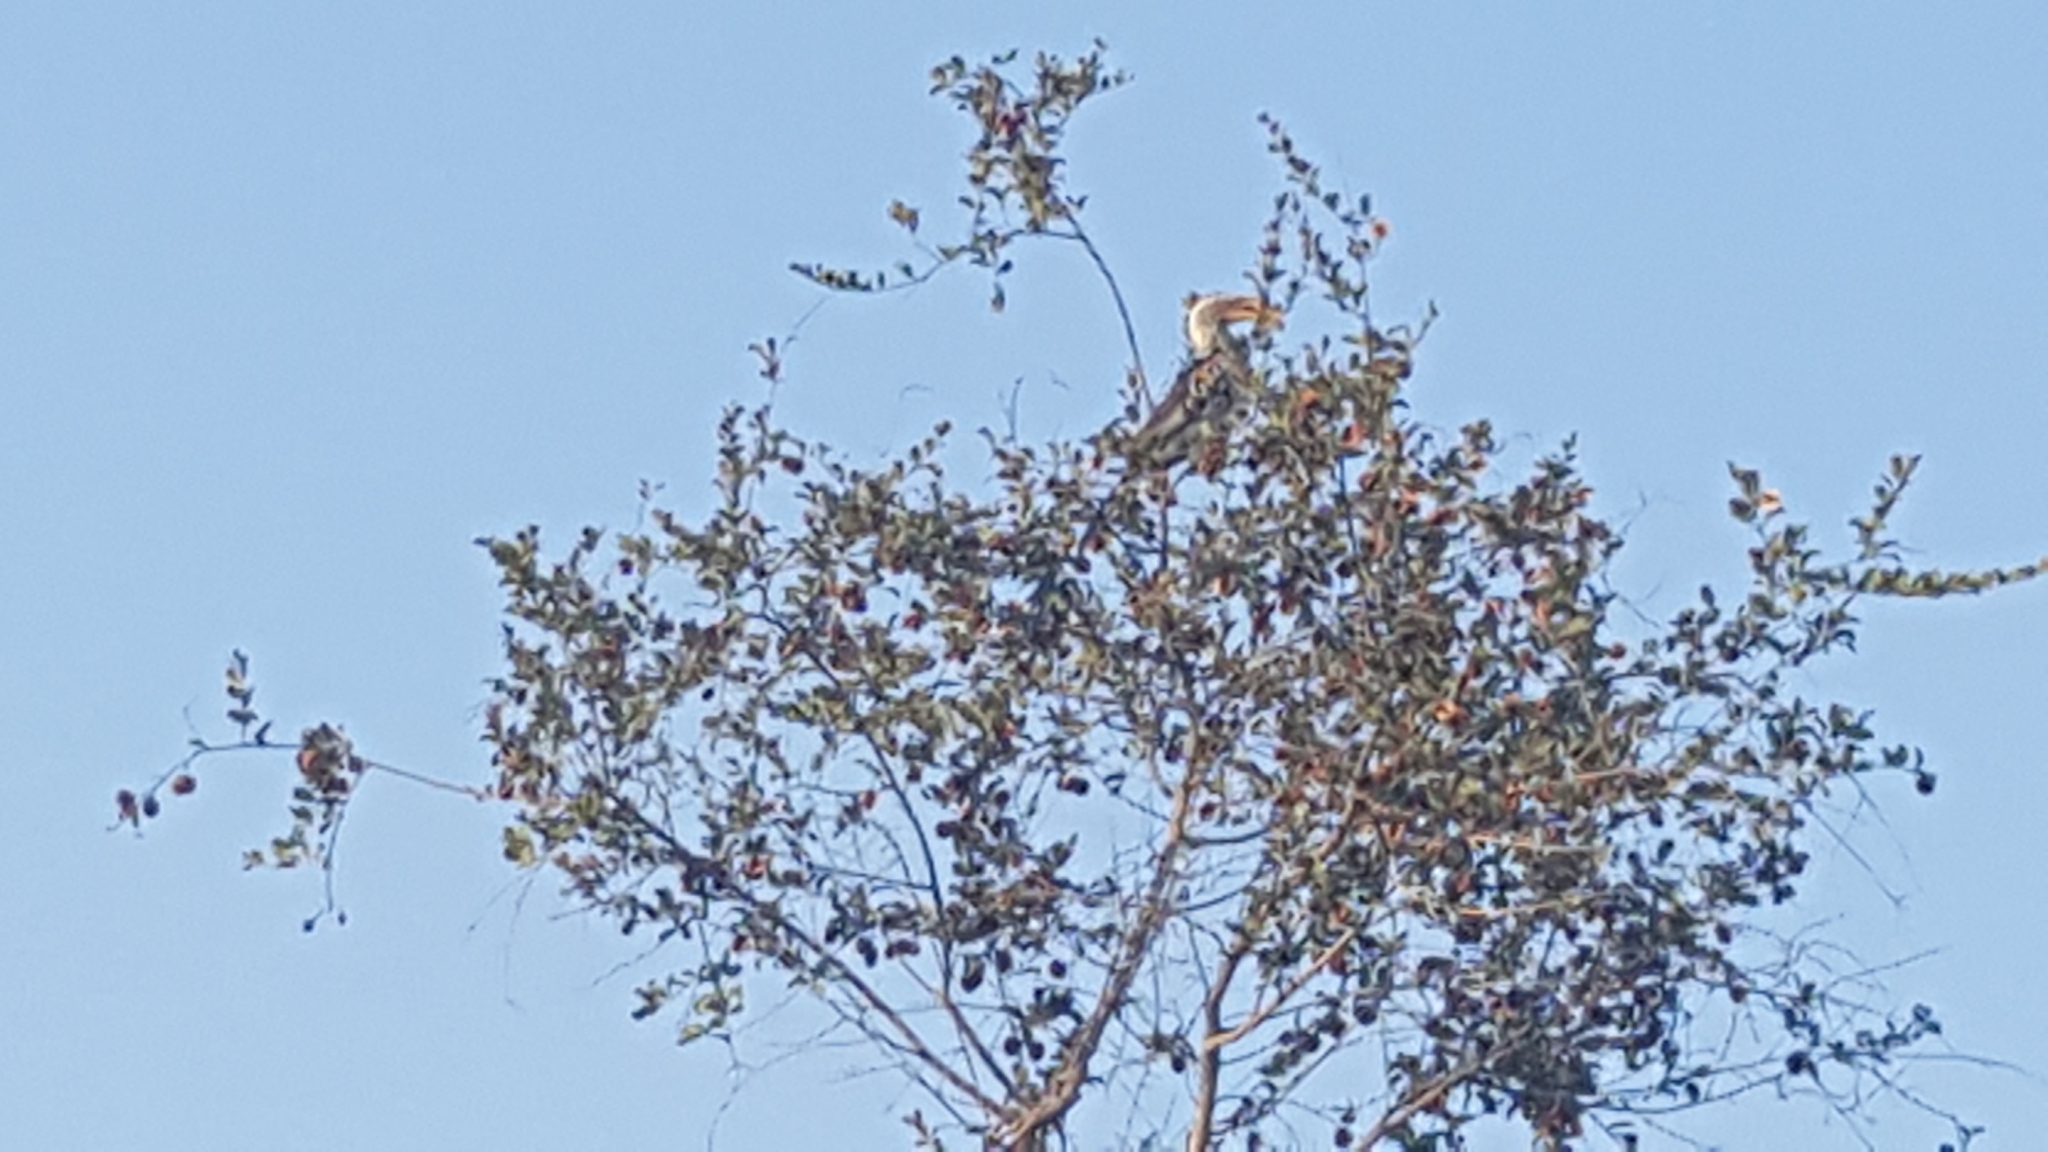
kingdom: Animalia
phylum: Chordata
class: Aves
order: Bucerotiformes
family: Bucerotidae
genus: Tockus
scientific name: Tockus leucomelas
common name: Southern yellow-billed hornbill
